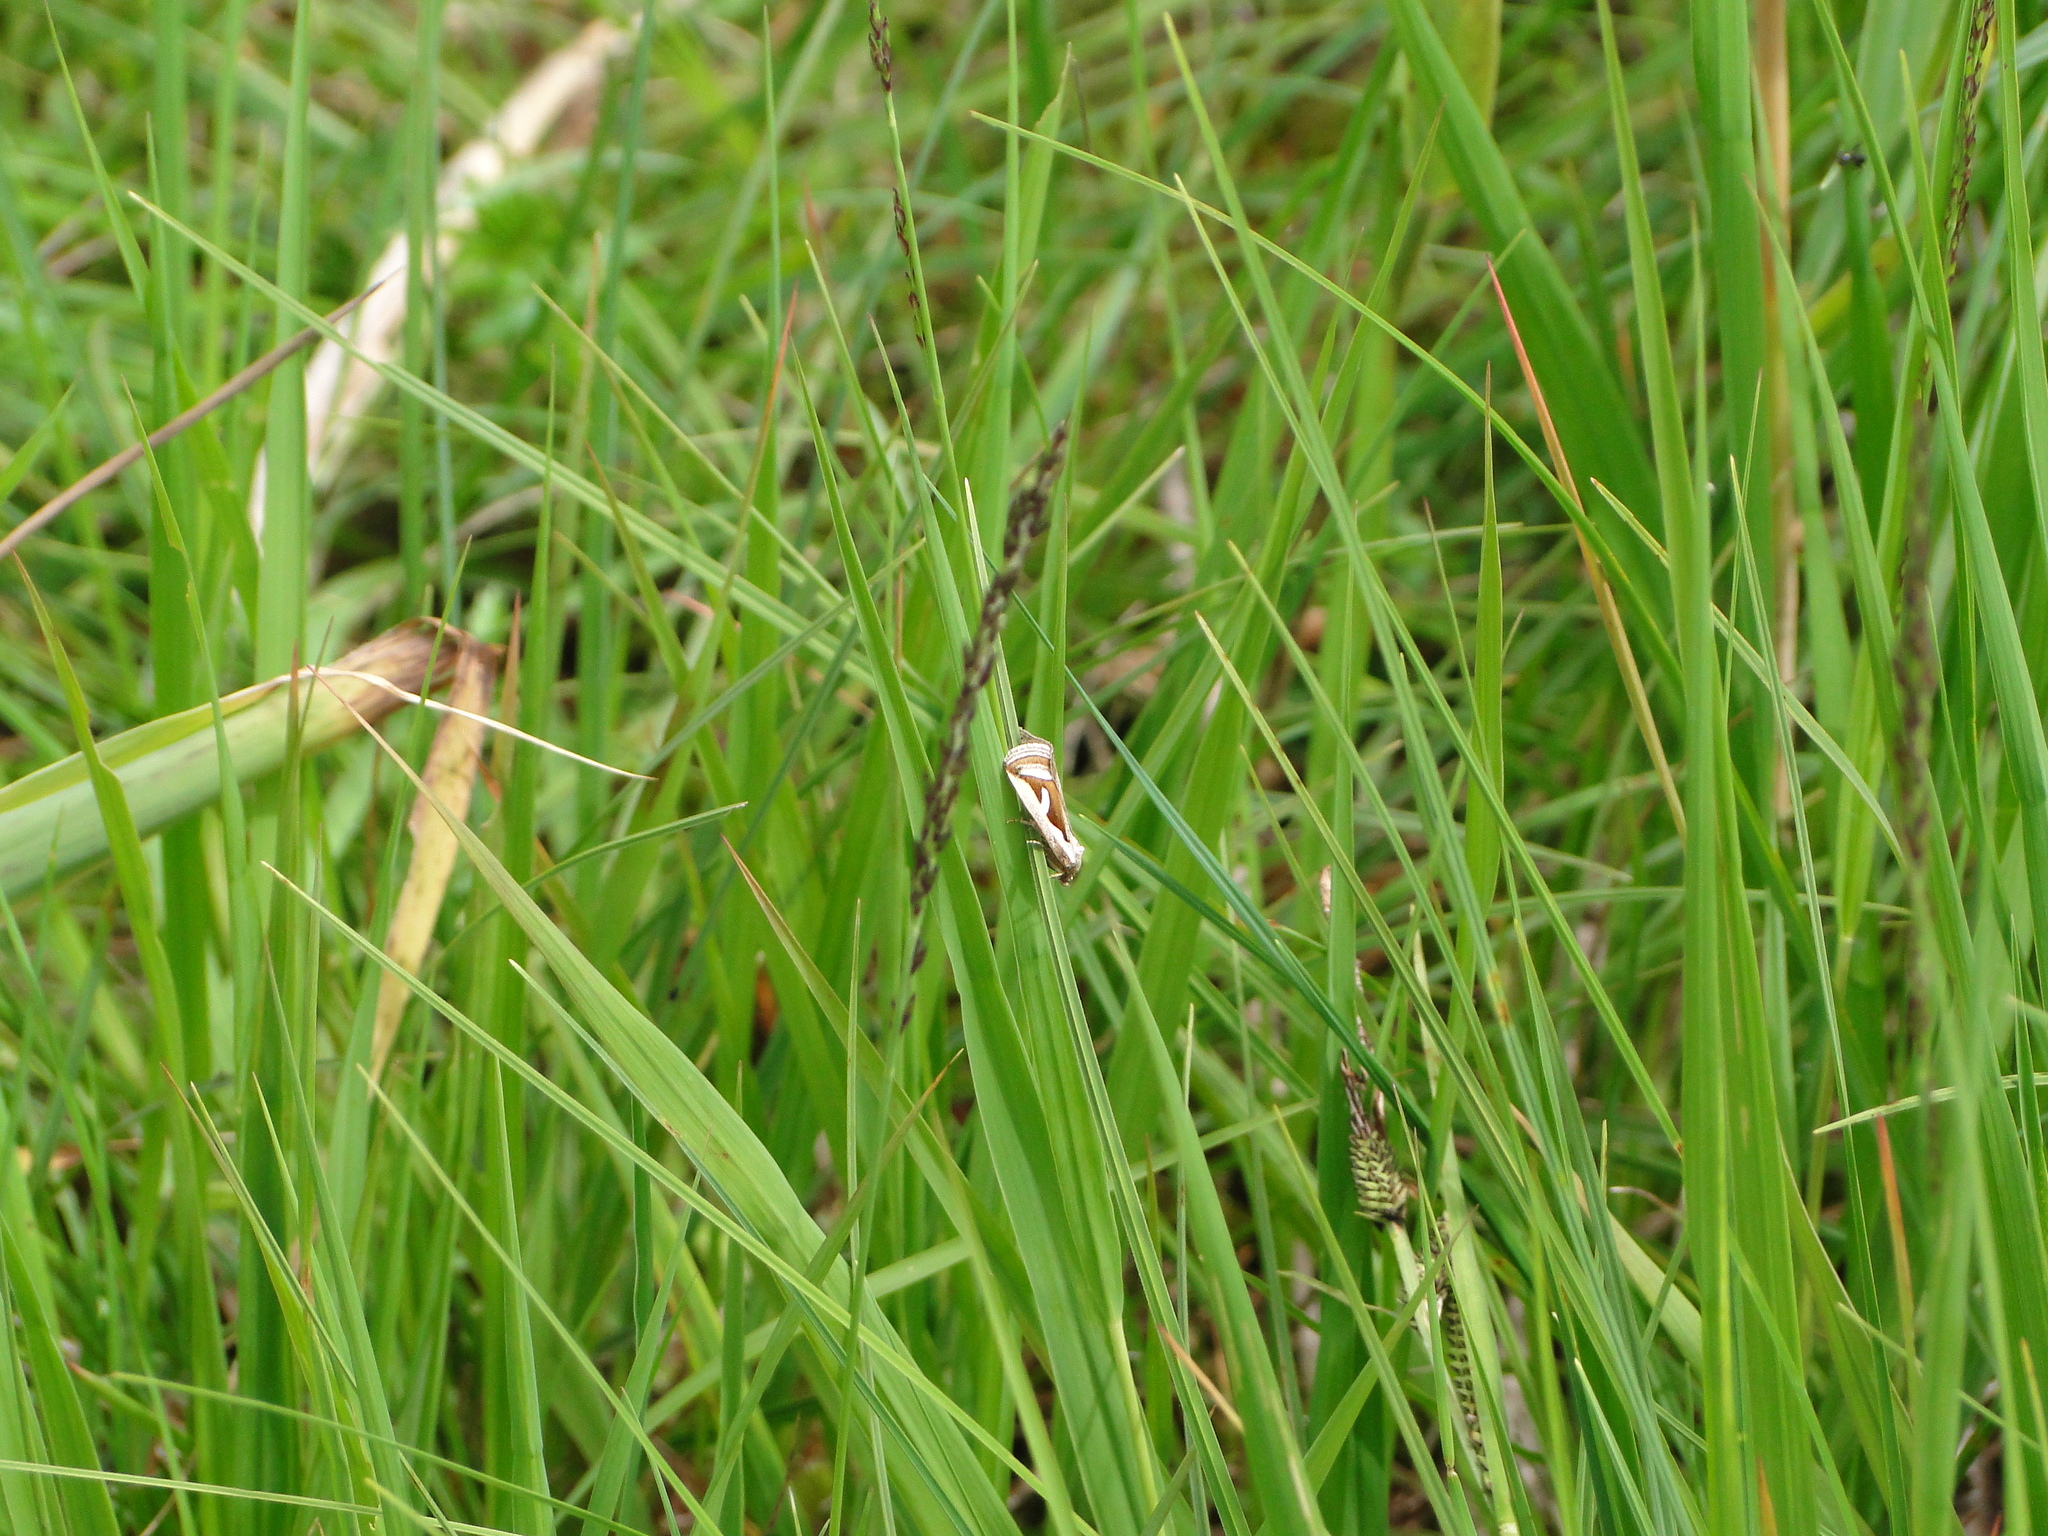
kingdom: Animalia
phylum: Arthropoda
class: Insecta
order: Lepidoptera
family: Noctuidae
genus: Deltote
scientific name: Deltote uncula
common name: Silver hook
